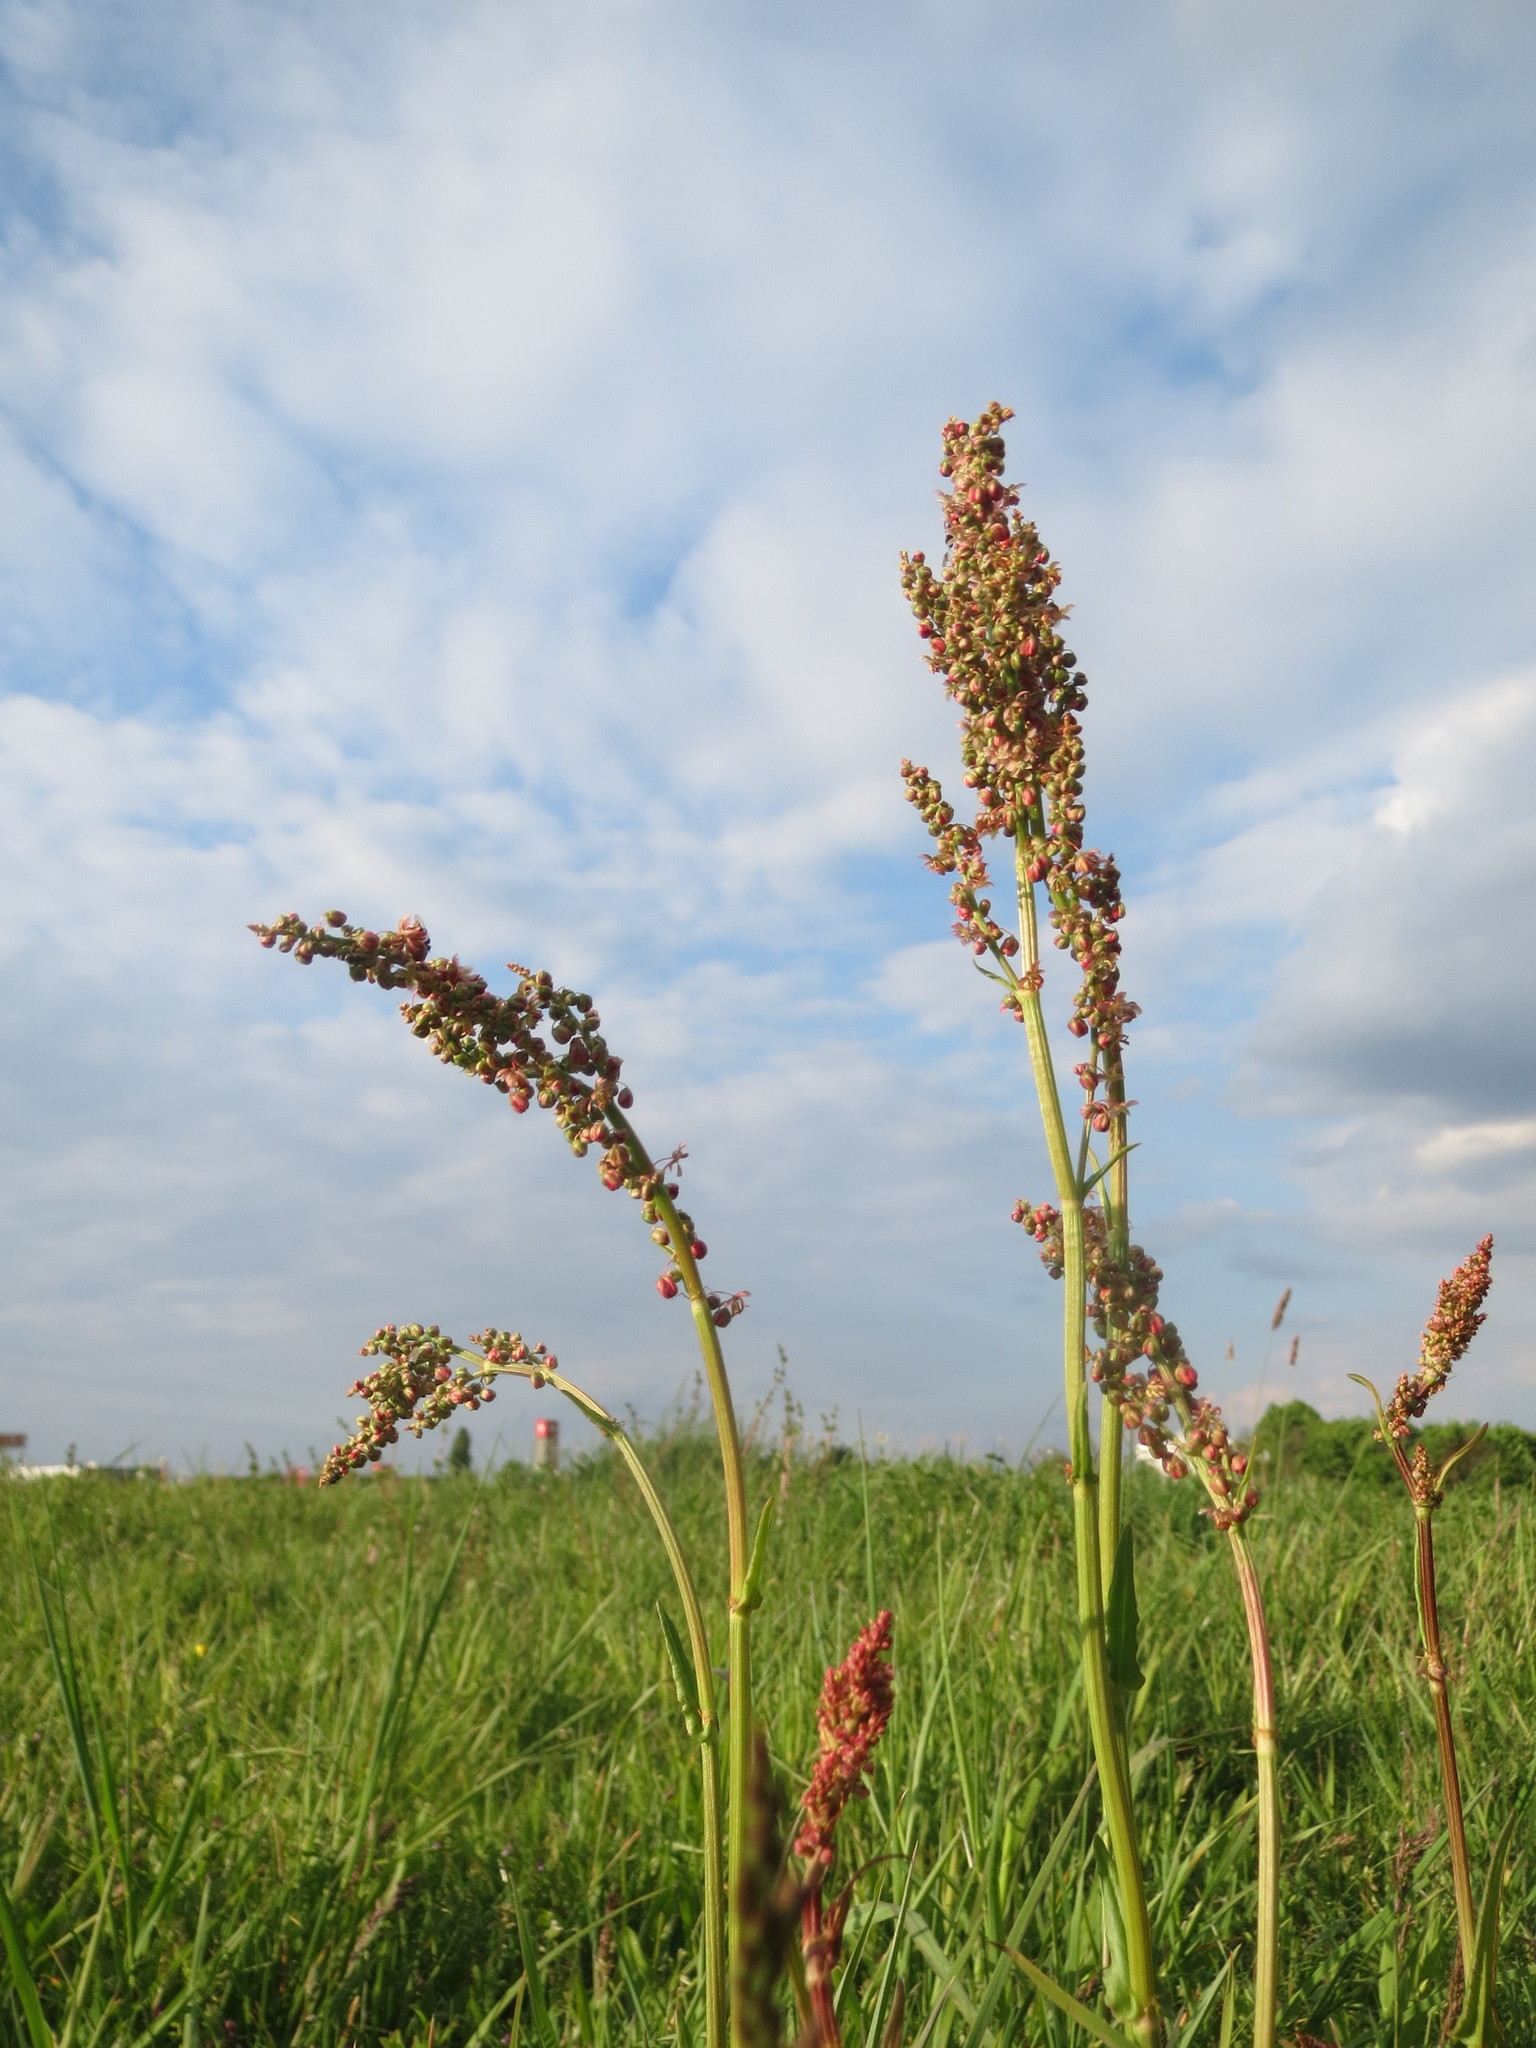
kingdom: Plantae
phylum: Tracheophyta
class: Magnoliopsida
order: Caryophyllales
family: Polygonaceae
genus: Rumex
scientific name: Rumex acetosa
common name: Garden sorrel
